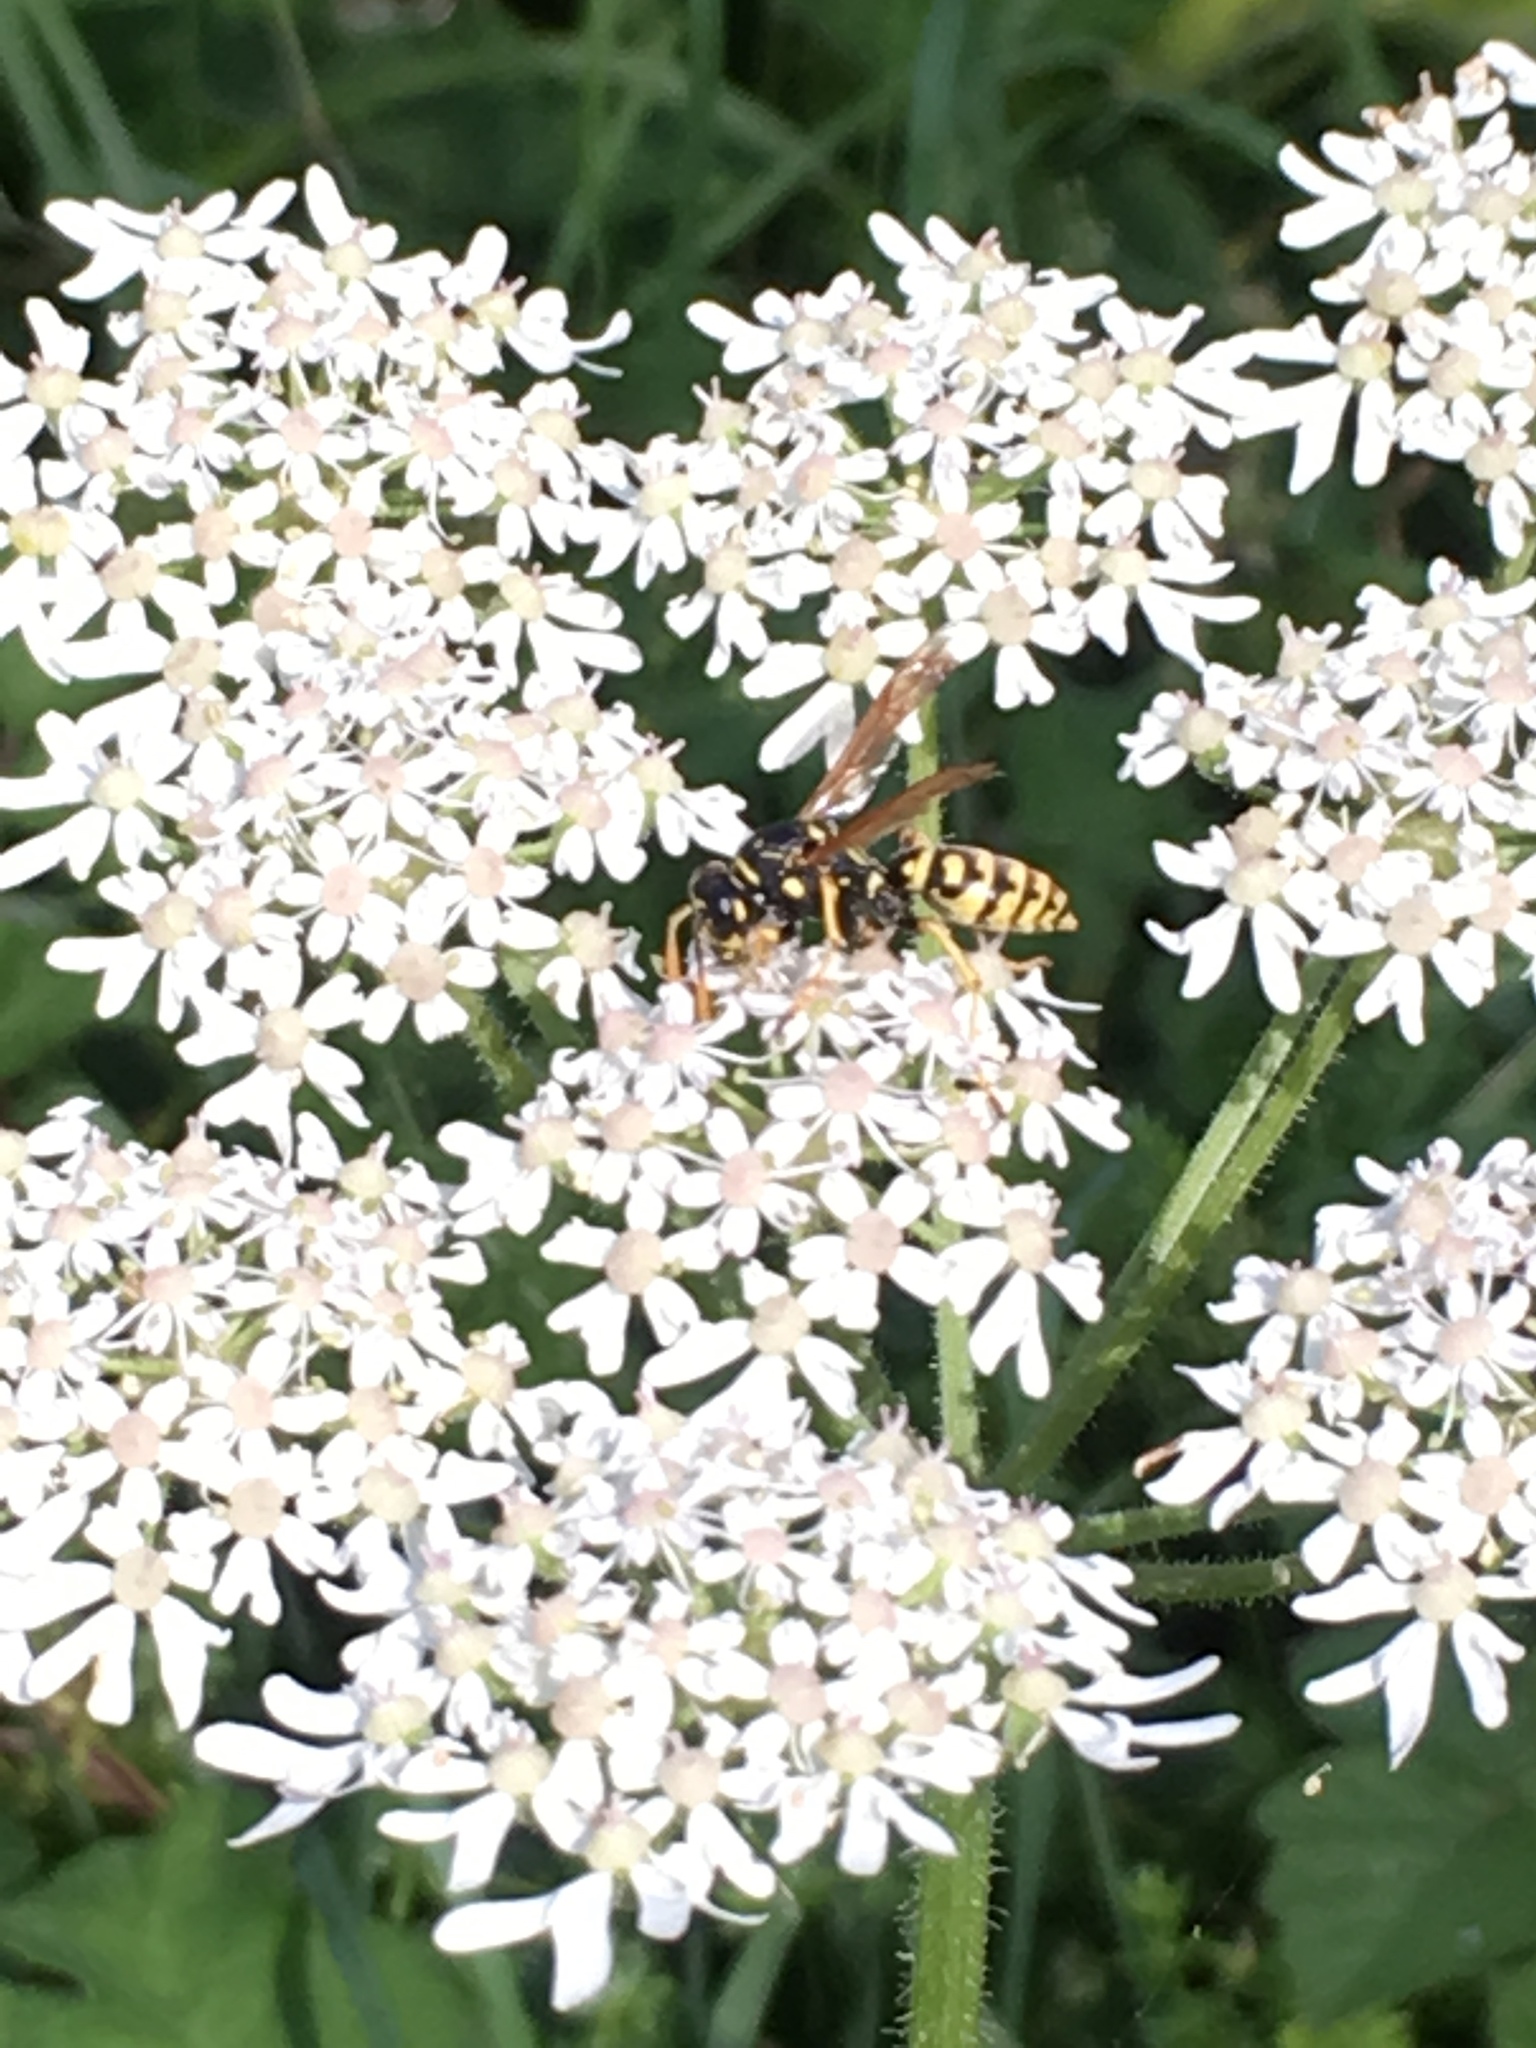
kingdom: Animalia
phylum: Arthropoda
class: Insecta
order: Hymenoptera
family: Eumenidae
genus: Polistes
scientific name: Polistes dominula
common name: Paper wasp
